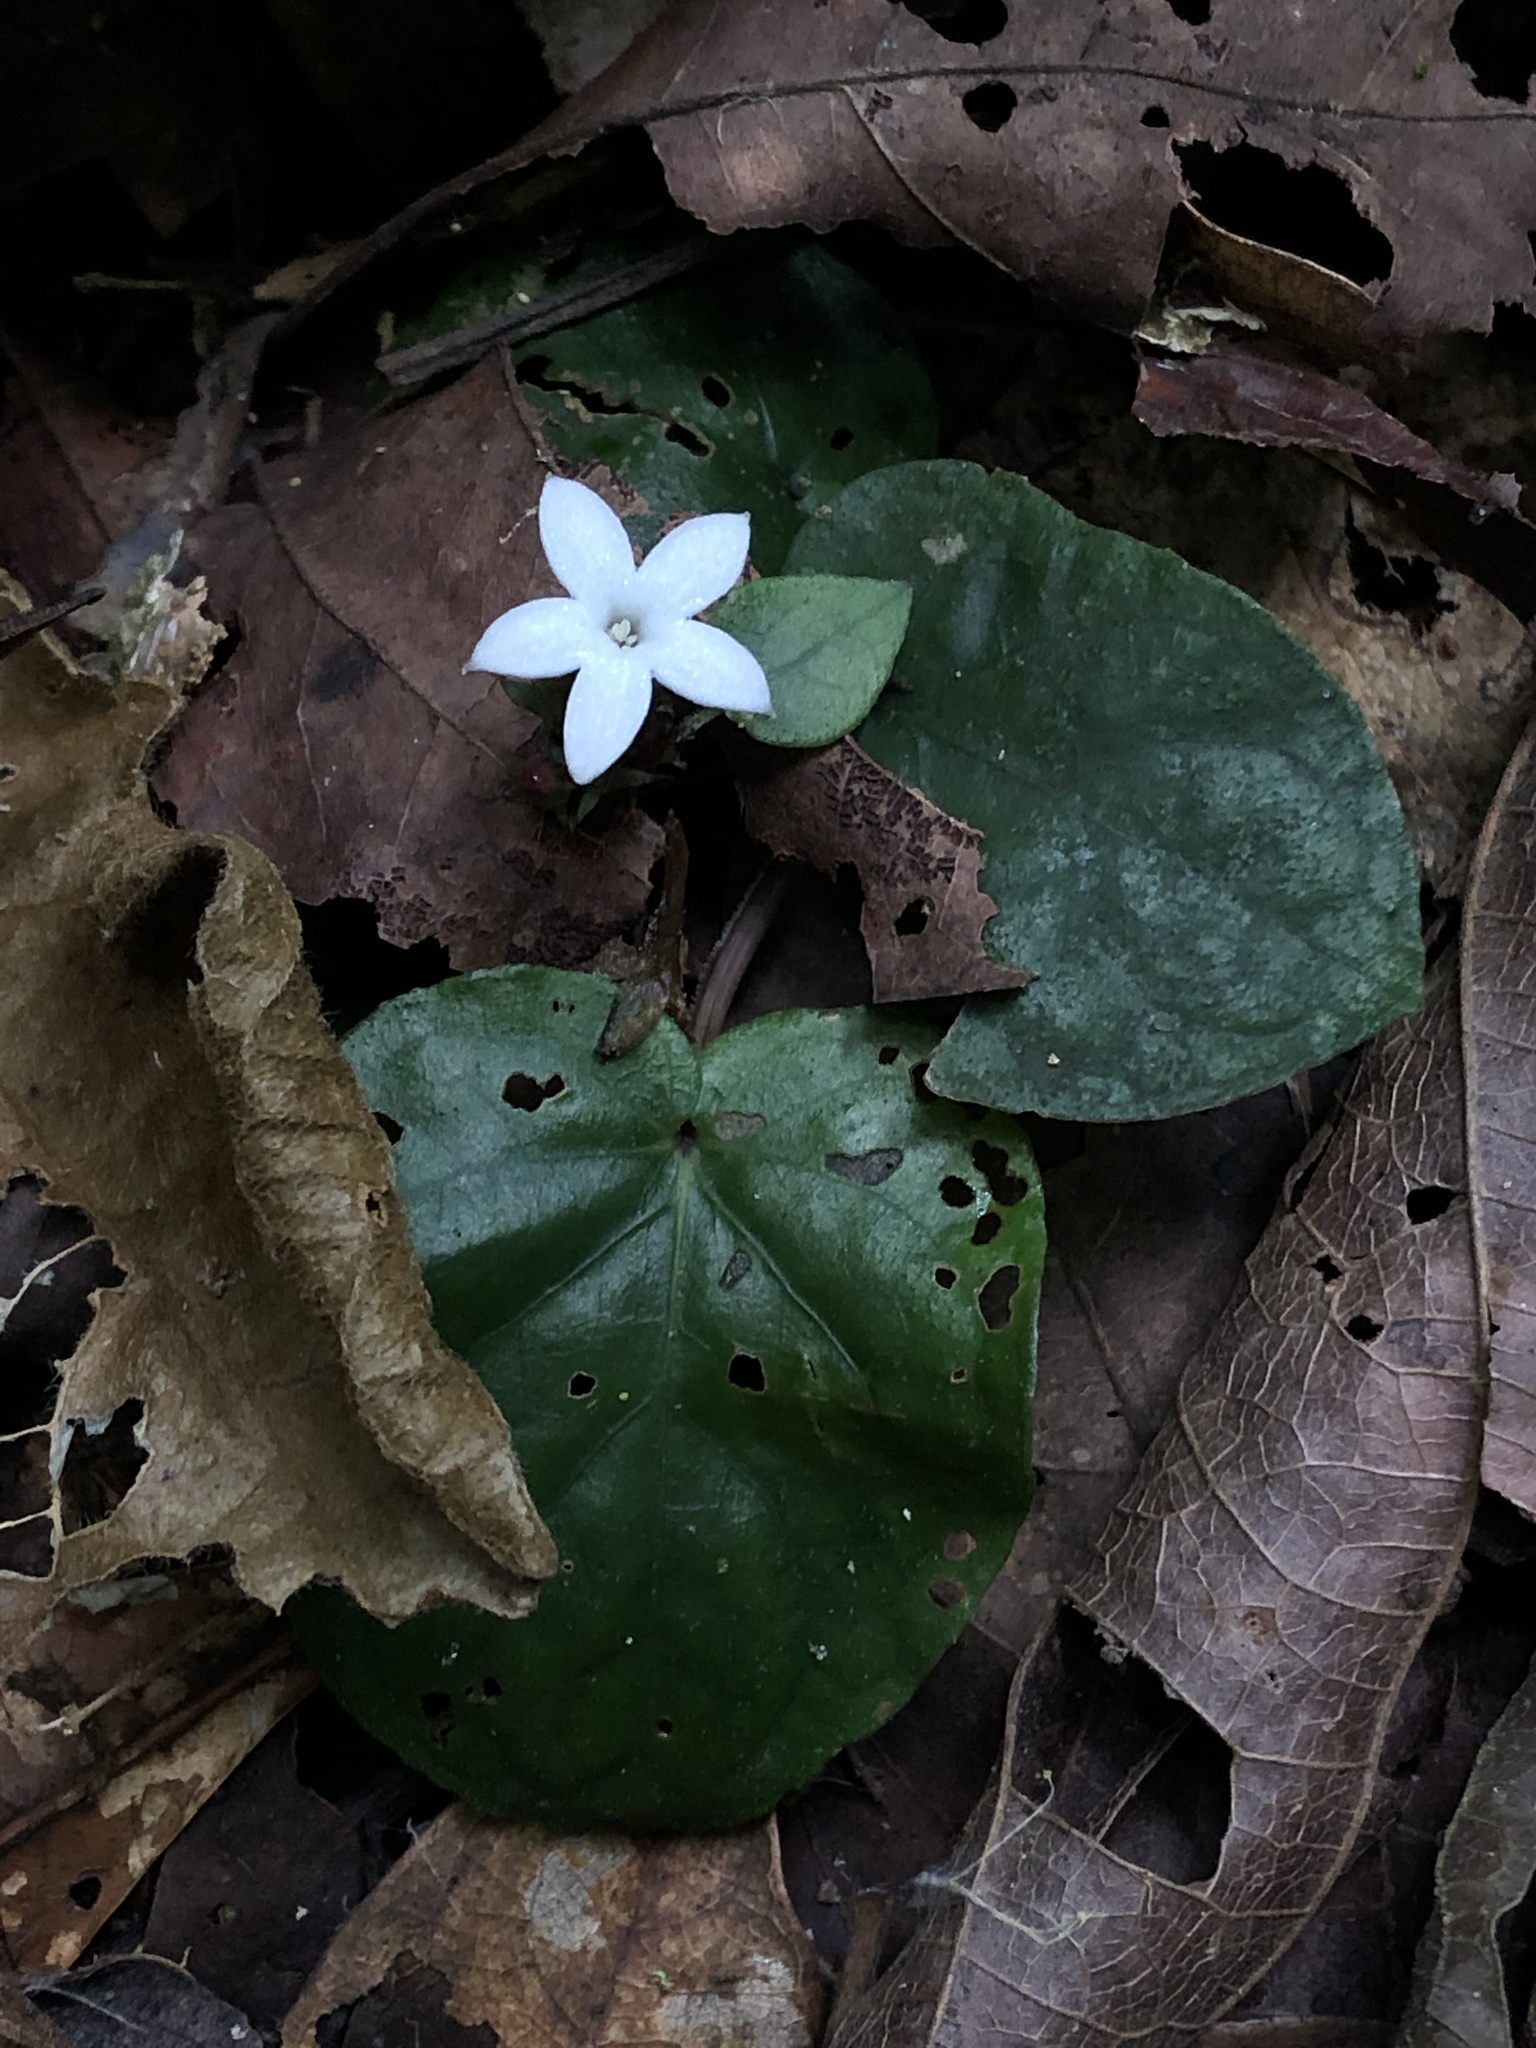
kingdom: Plantae
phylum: Tracheophyta
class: Magnoliopsida
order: Gentianales
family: Rubiaceae
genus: Geophila
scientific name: Geophila
